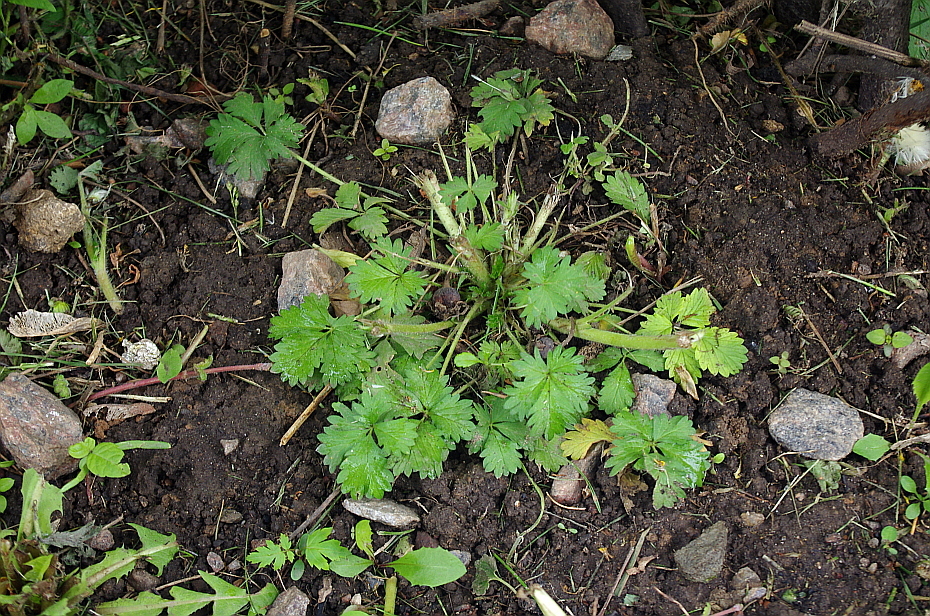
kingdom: Plantae
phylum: Tracheophyta
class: Magnoliopsida
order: Rosales
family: Rosaceae
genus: Potentilla
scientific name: Potentilla intermedia
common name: Downy cinquefoil
